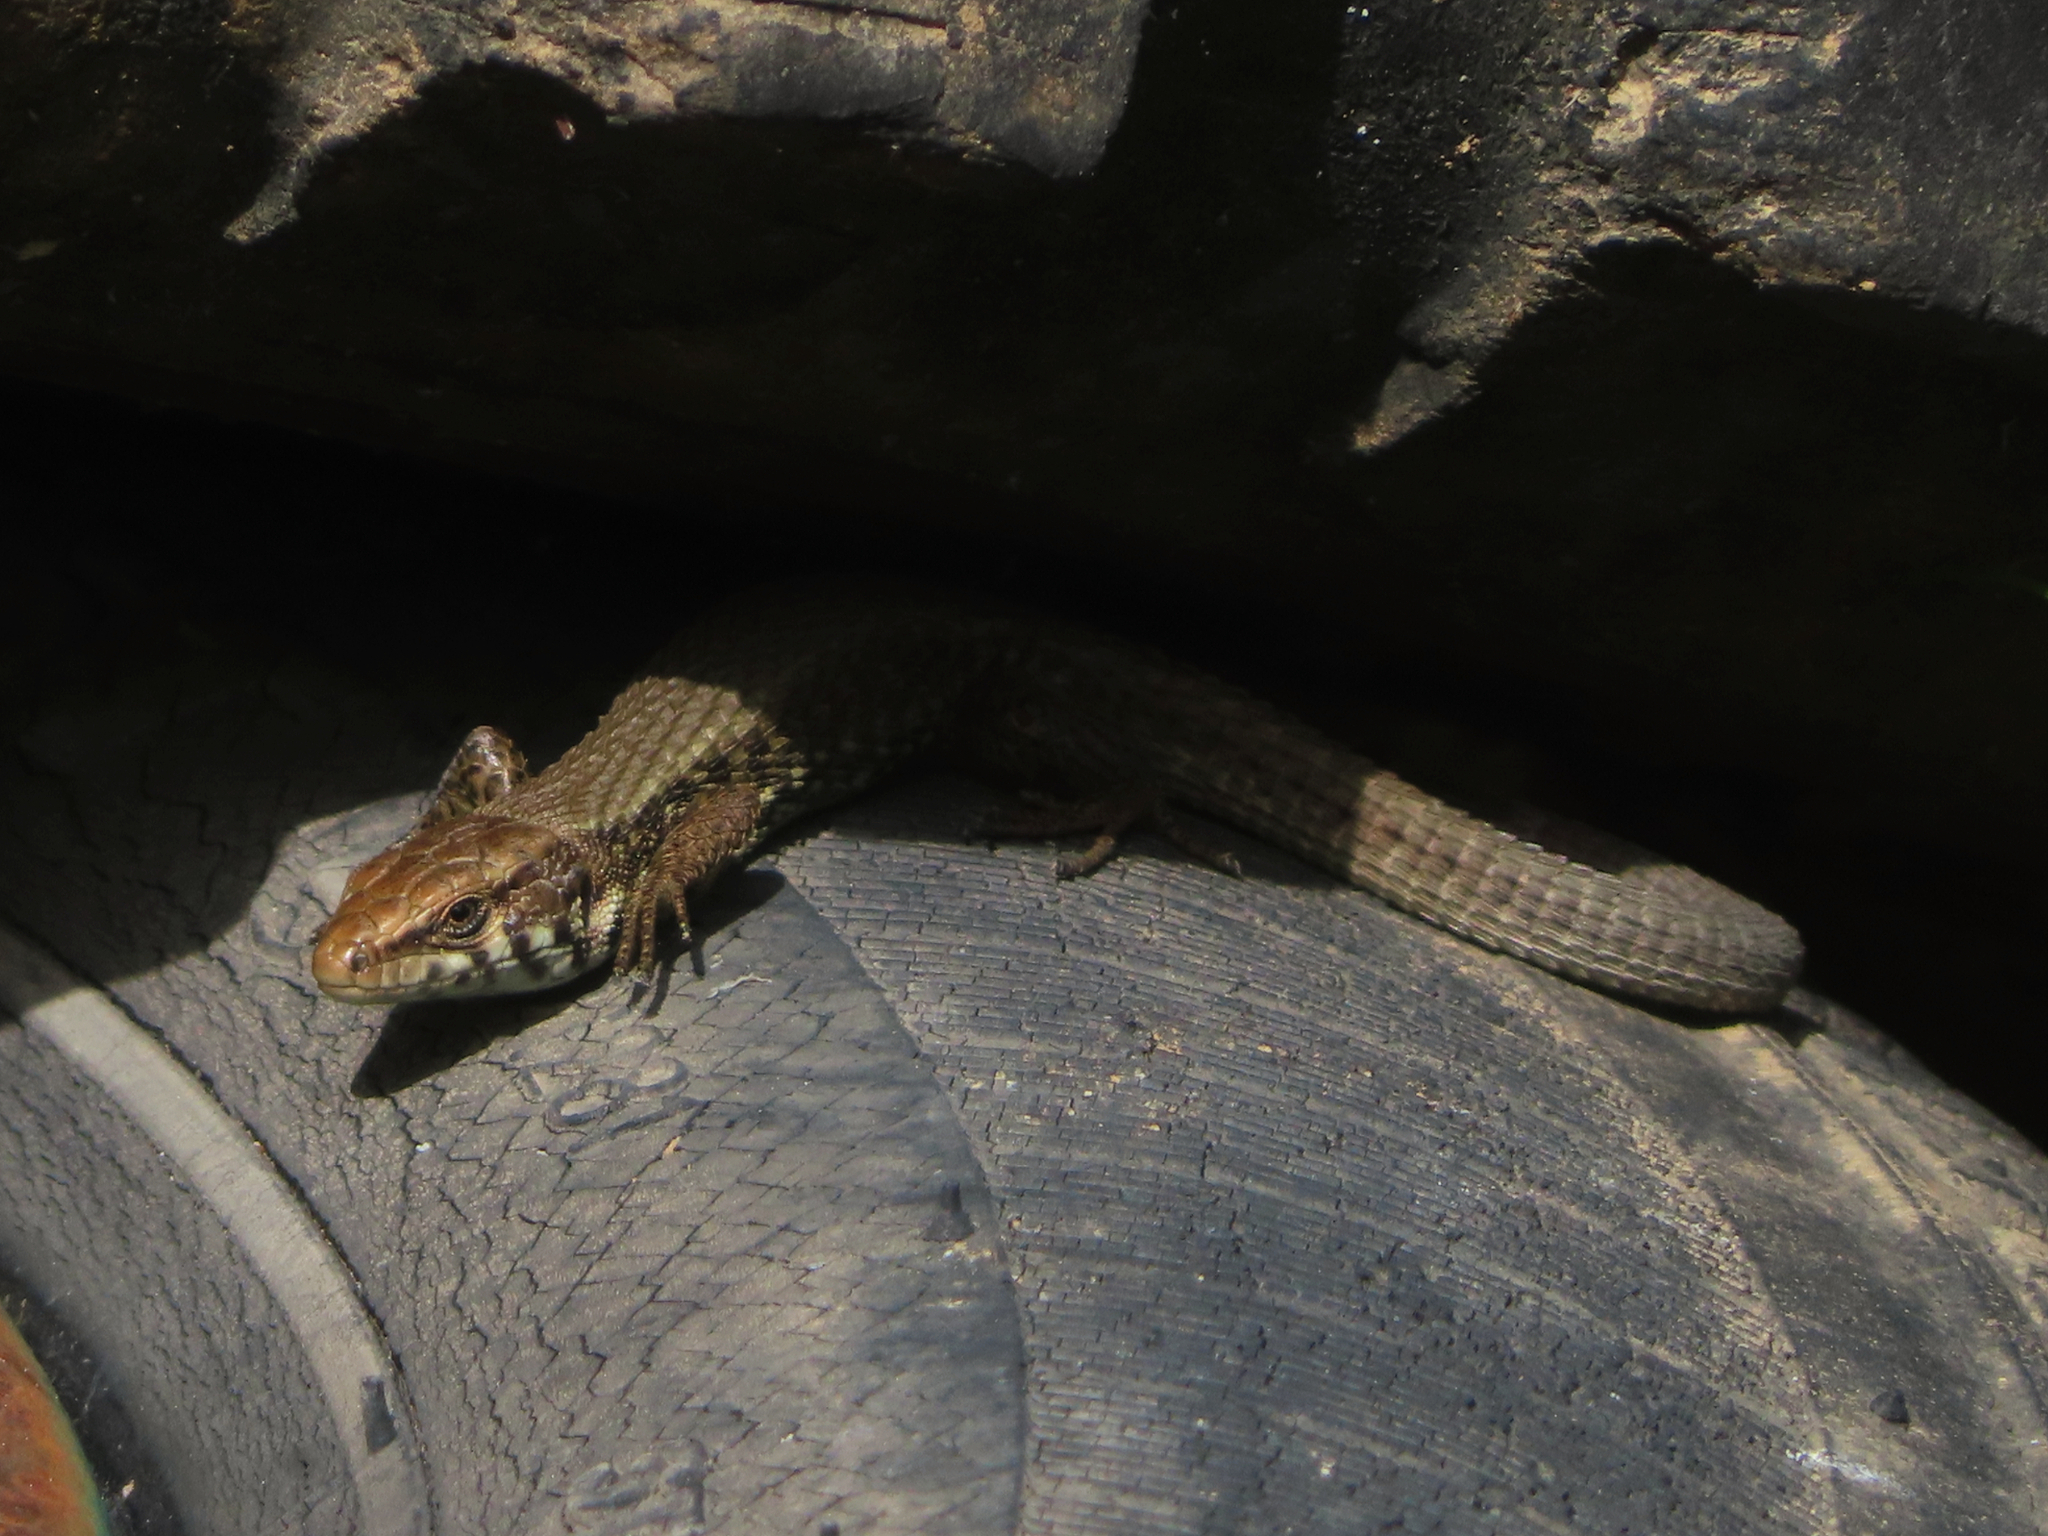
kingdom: Animalia
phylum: Chordata
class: Squamata
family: Lacertidae
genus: Algyroides
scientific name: Algyroides moreoticus
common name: Greek algyroides
